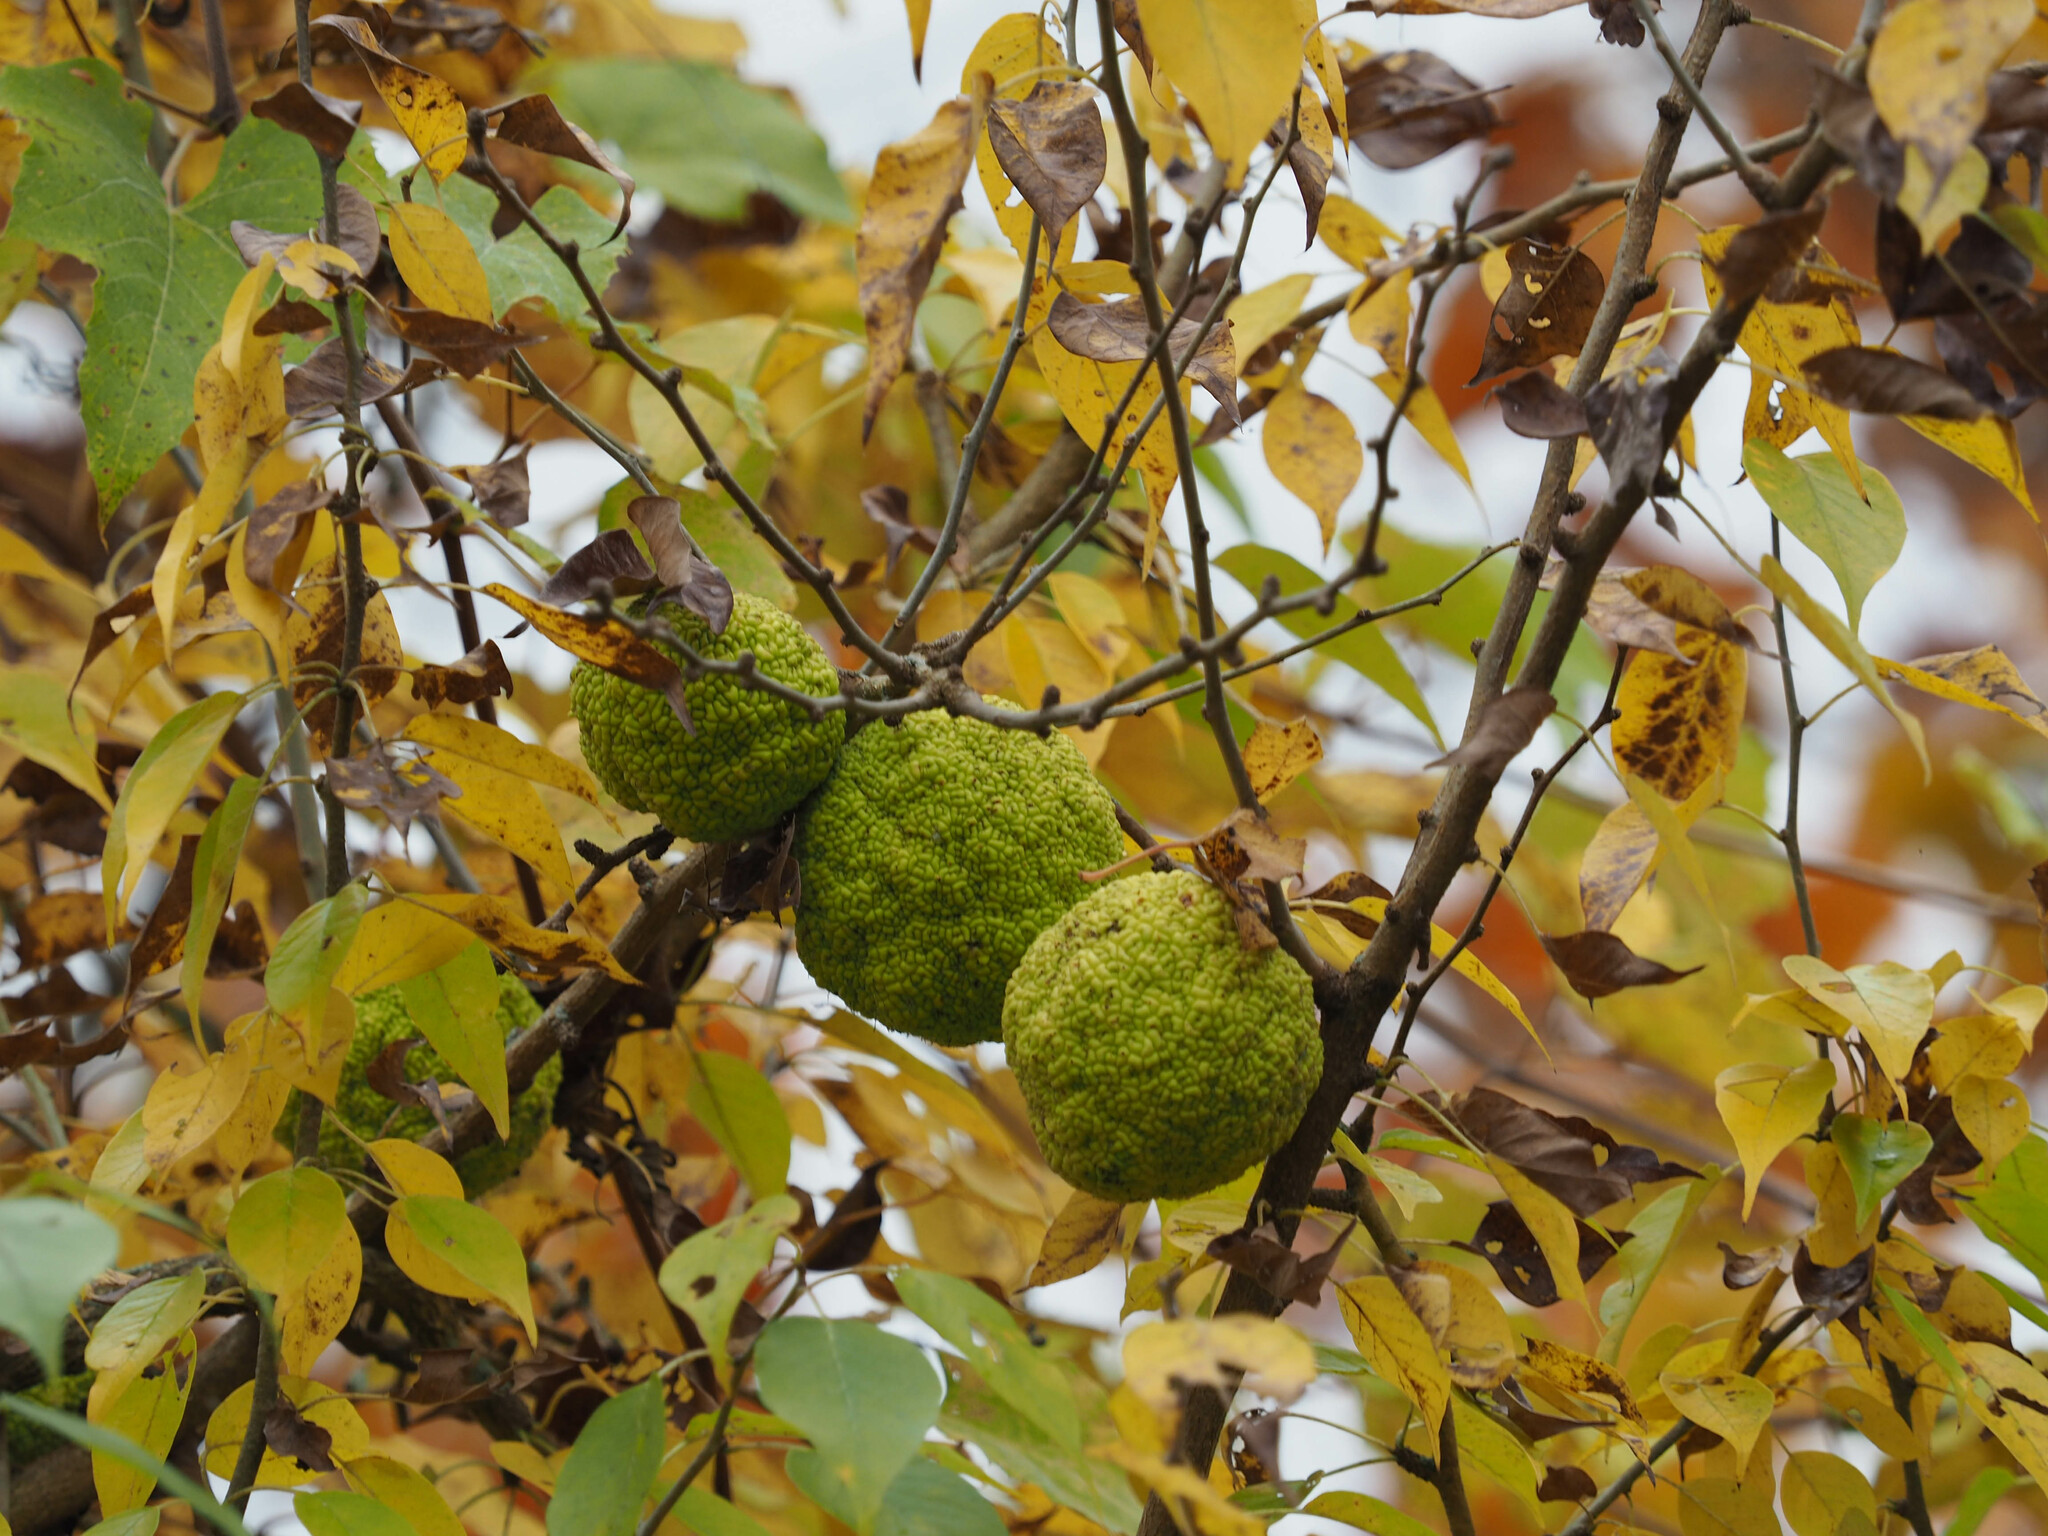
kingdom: Plantae
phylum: Tracheophyta
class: Magnoliopsida
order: Rosales
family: Moraceae
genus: Maclura
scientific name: Maclura pomifera
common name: Osage-orange
